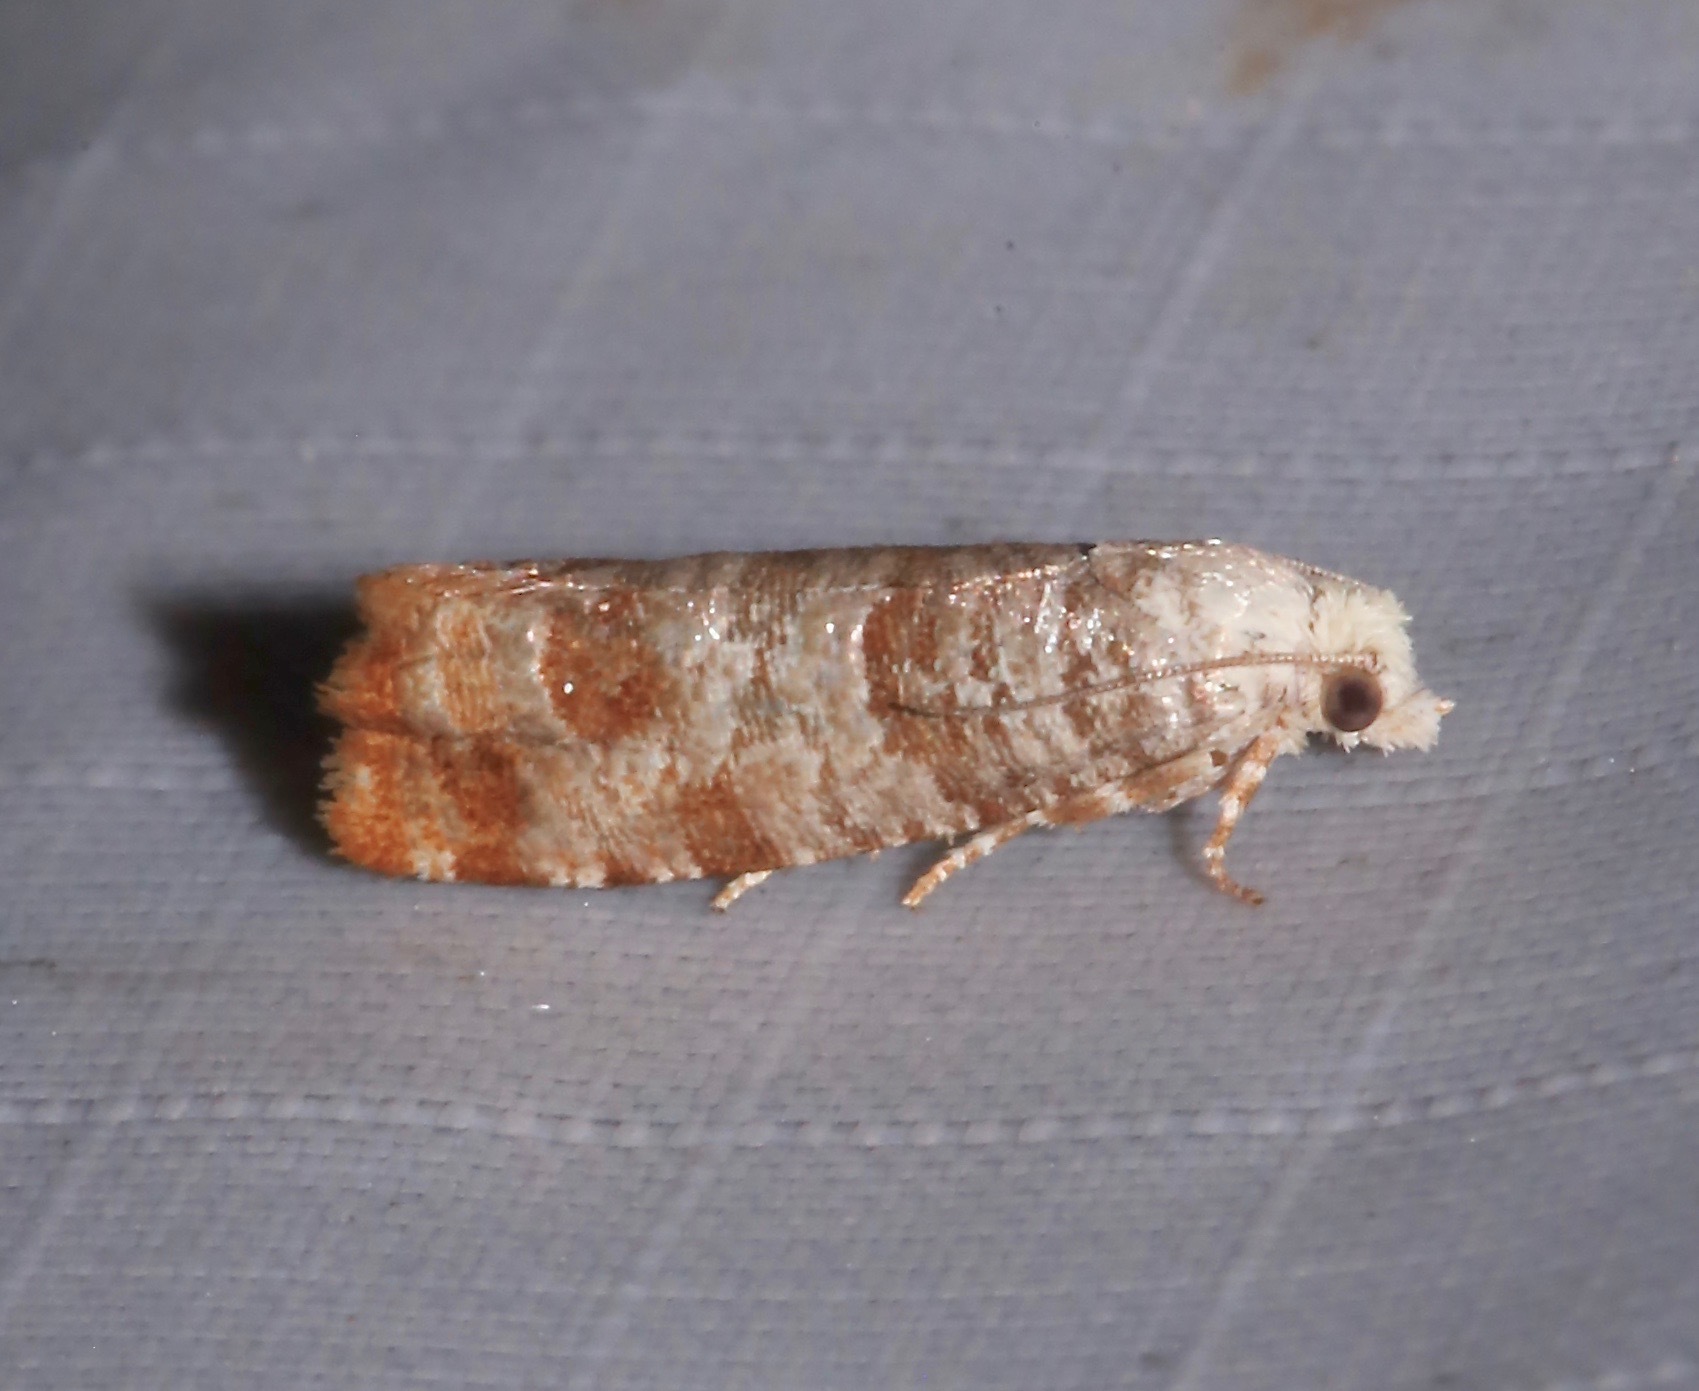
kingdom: Animalia
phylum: Arthropoda
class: Insecta
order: Lepidoptera
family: Tortricidae
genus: Retinia
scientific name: Retinia comstockiana
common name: Pitch twig moth
